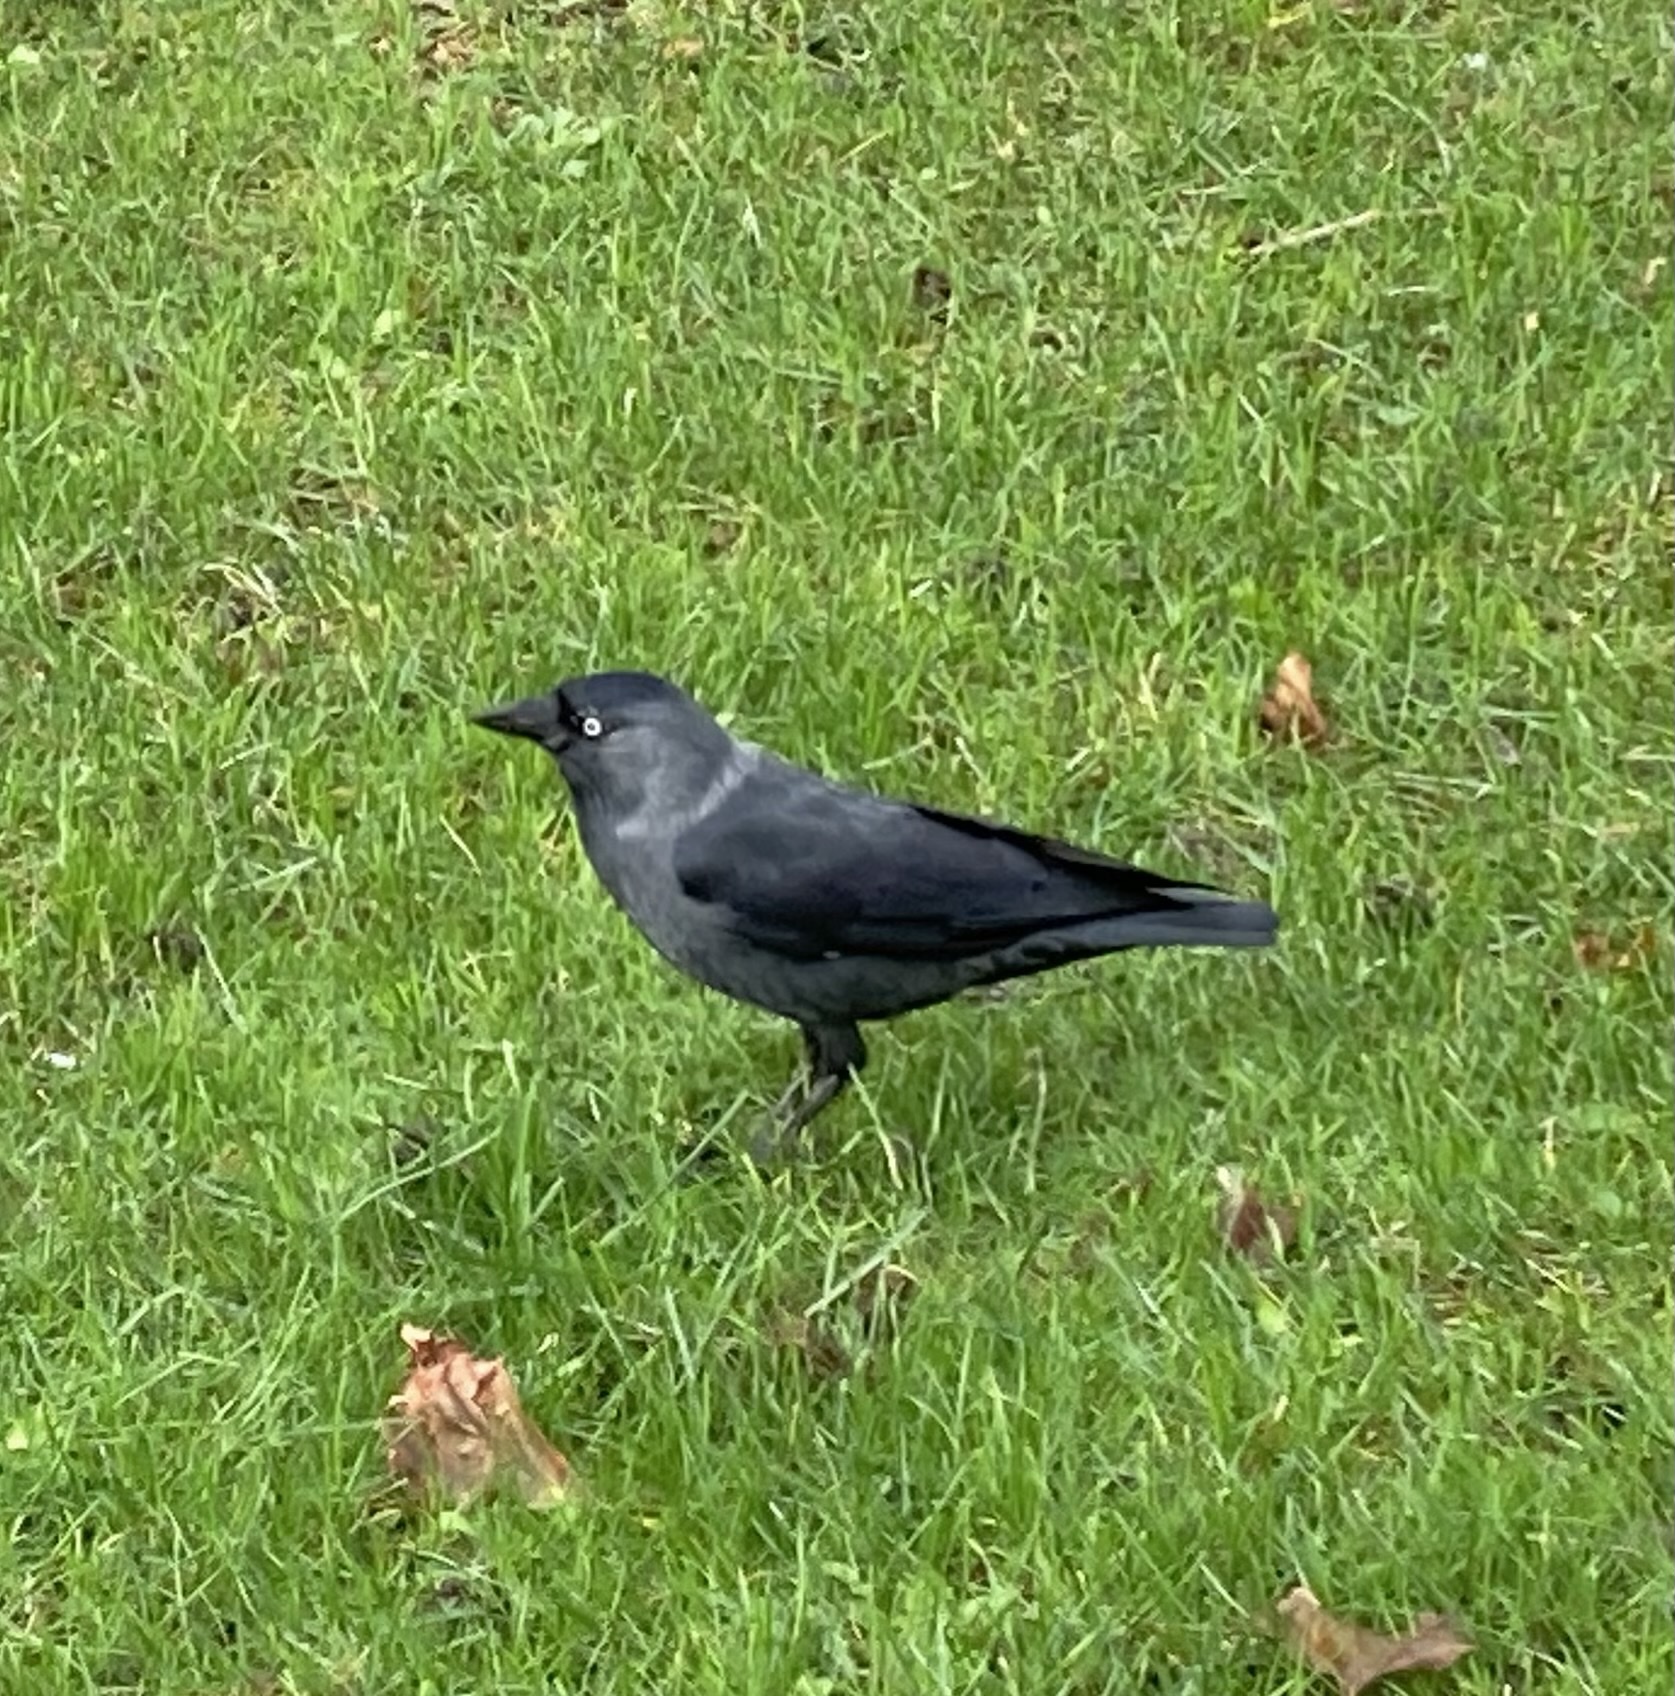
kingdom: Animalia
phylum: Chordata
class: Aves
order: Passeriformes
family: Corvidae
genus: Coloeus
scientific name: Coloeus monedula
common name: Western jackdaw
